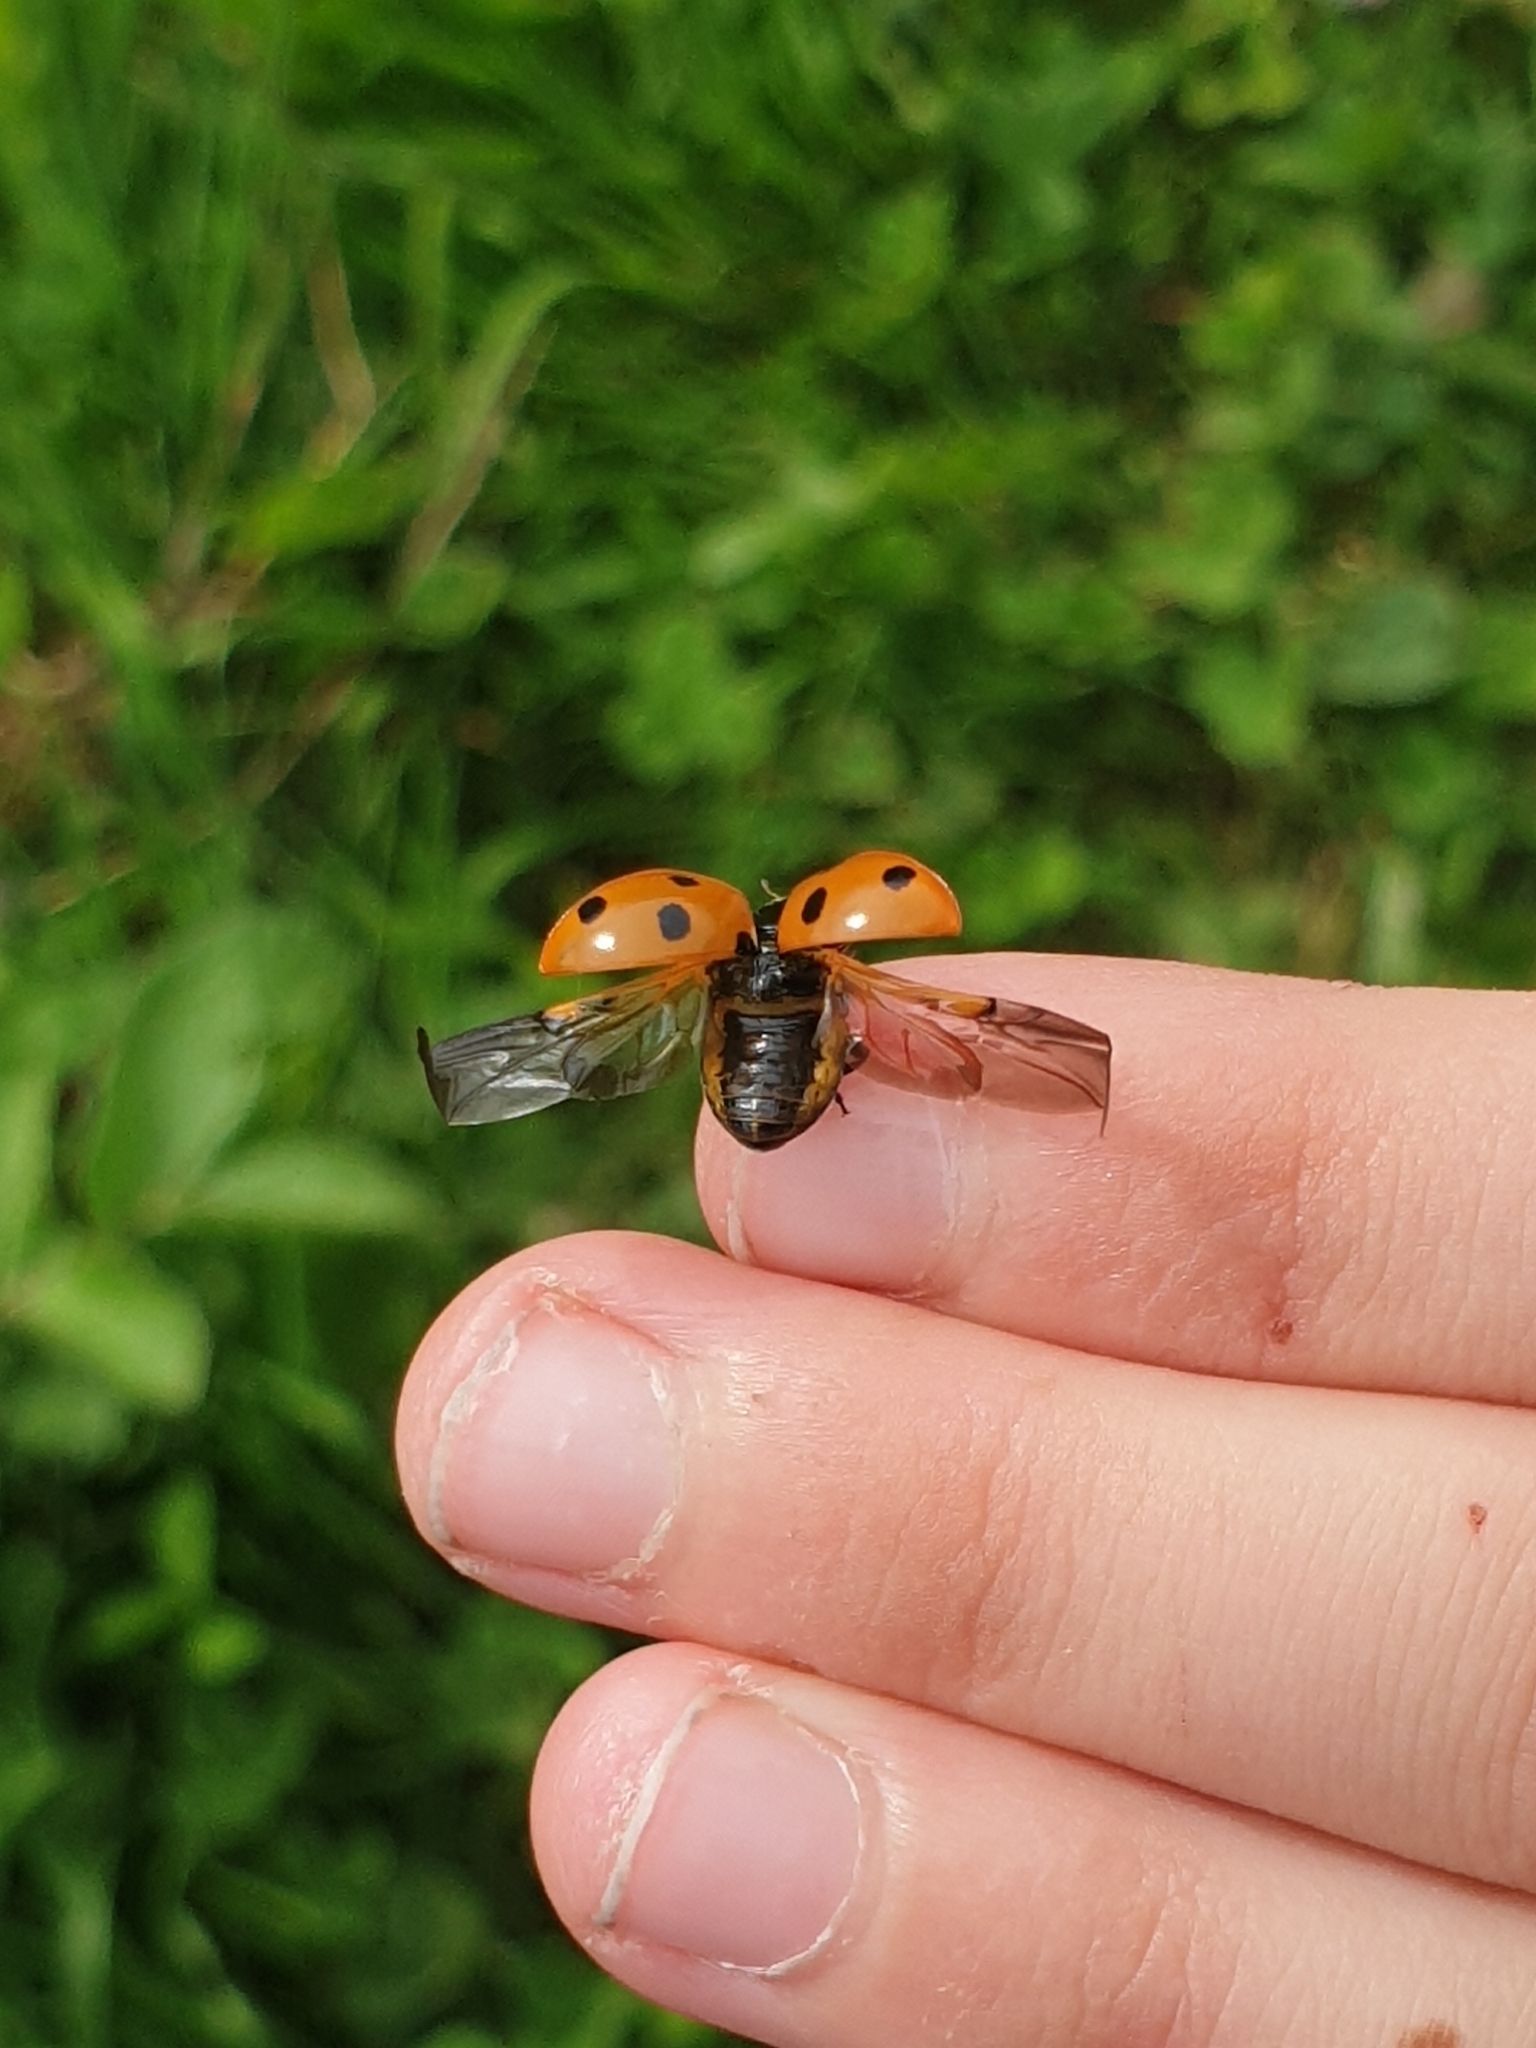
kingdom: Animalia
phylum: Arthropoda
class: Insecta
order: Coleoptera
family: Coccinellidae
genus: Coccinella
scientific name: Coccinella septempunctata
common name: Sevenspotted lady beetle
